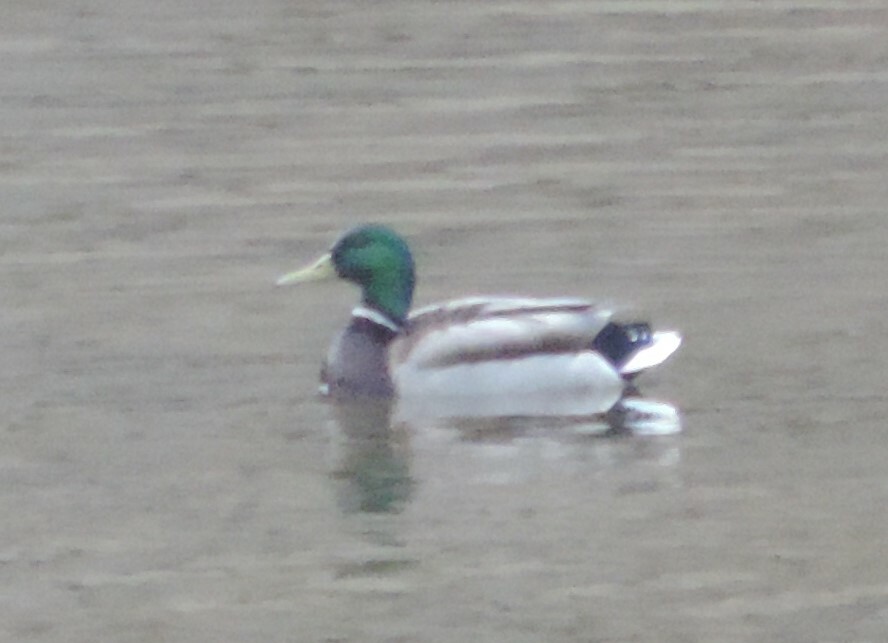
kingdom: Animalia
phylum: Chordata
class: Aves
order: Anseriformes
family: Anatidae
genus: Anas
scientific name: Anas platyrhynchos
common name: Mallard
